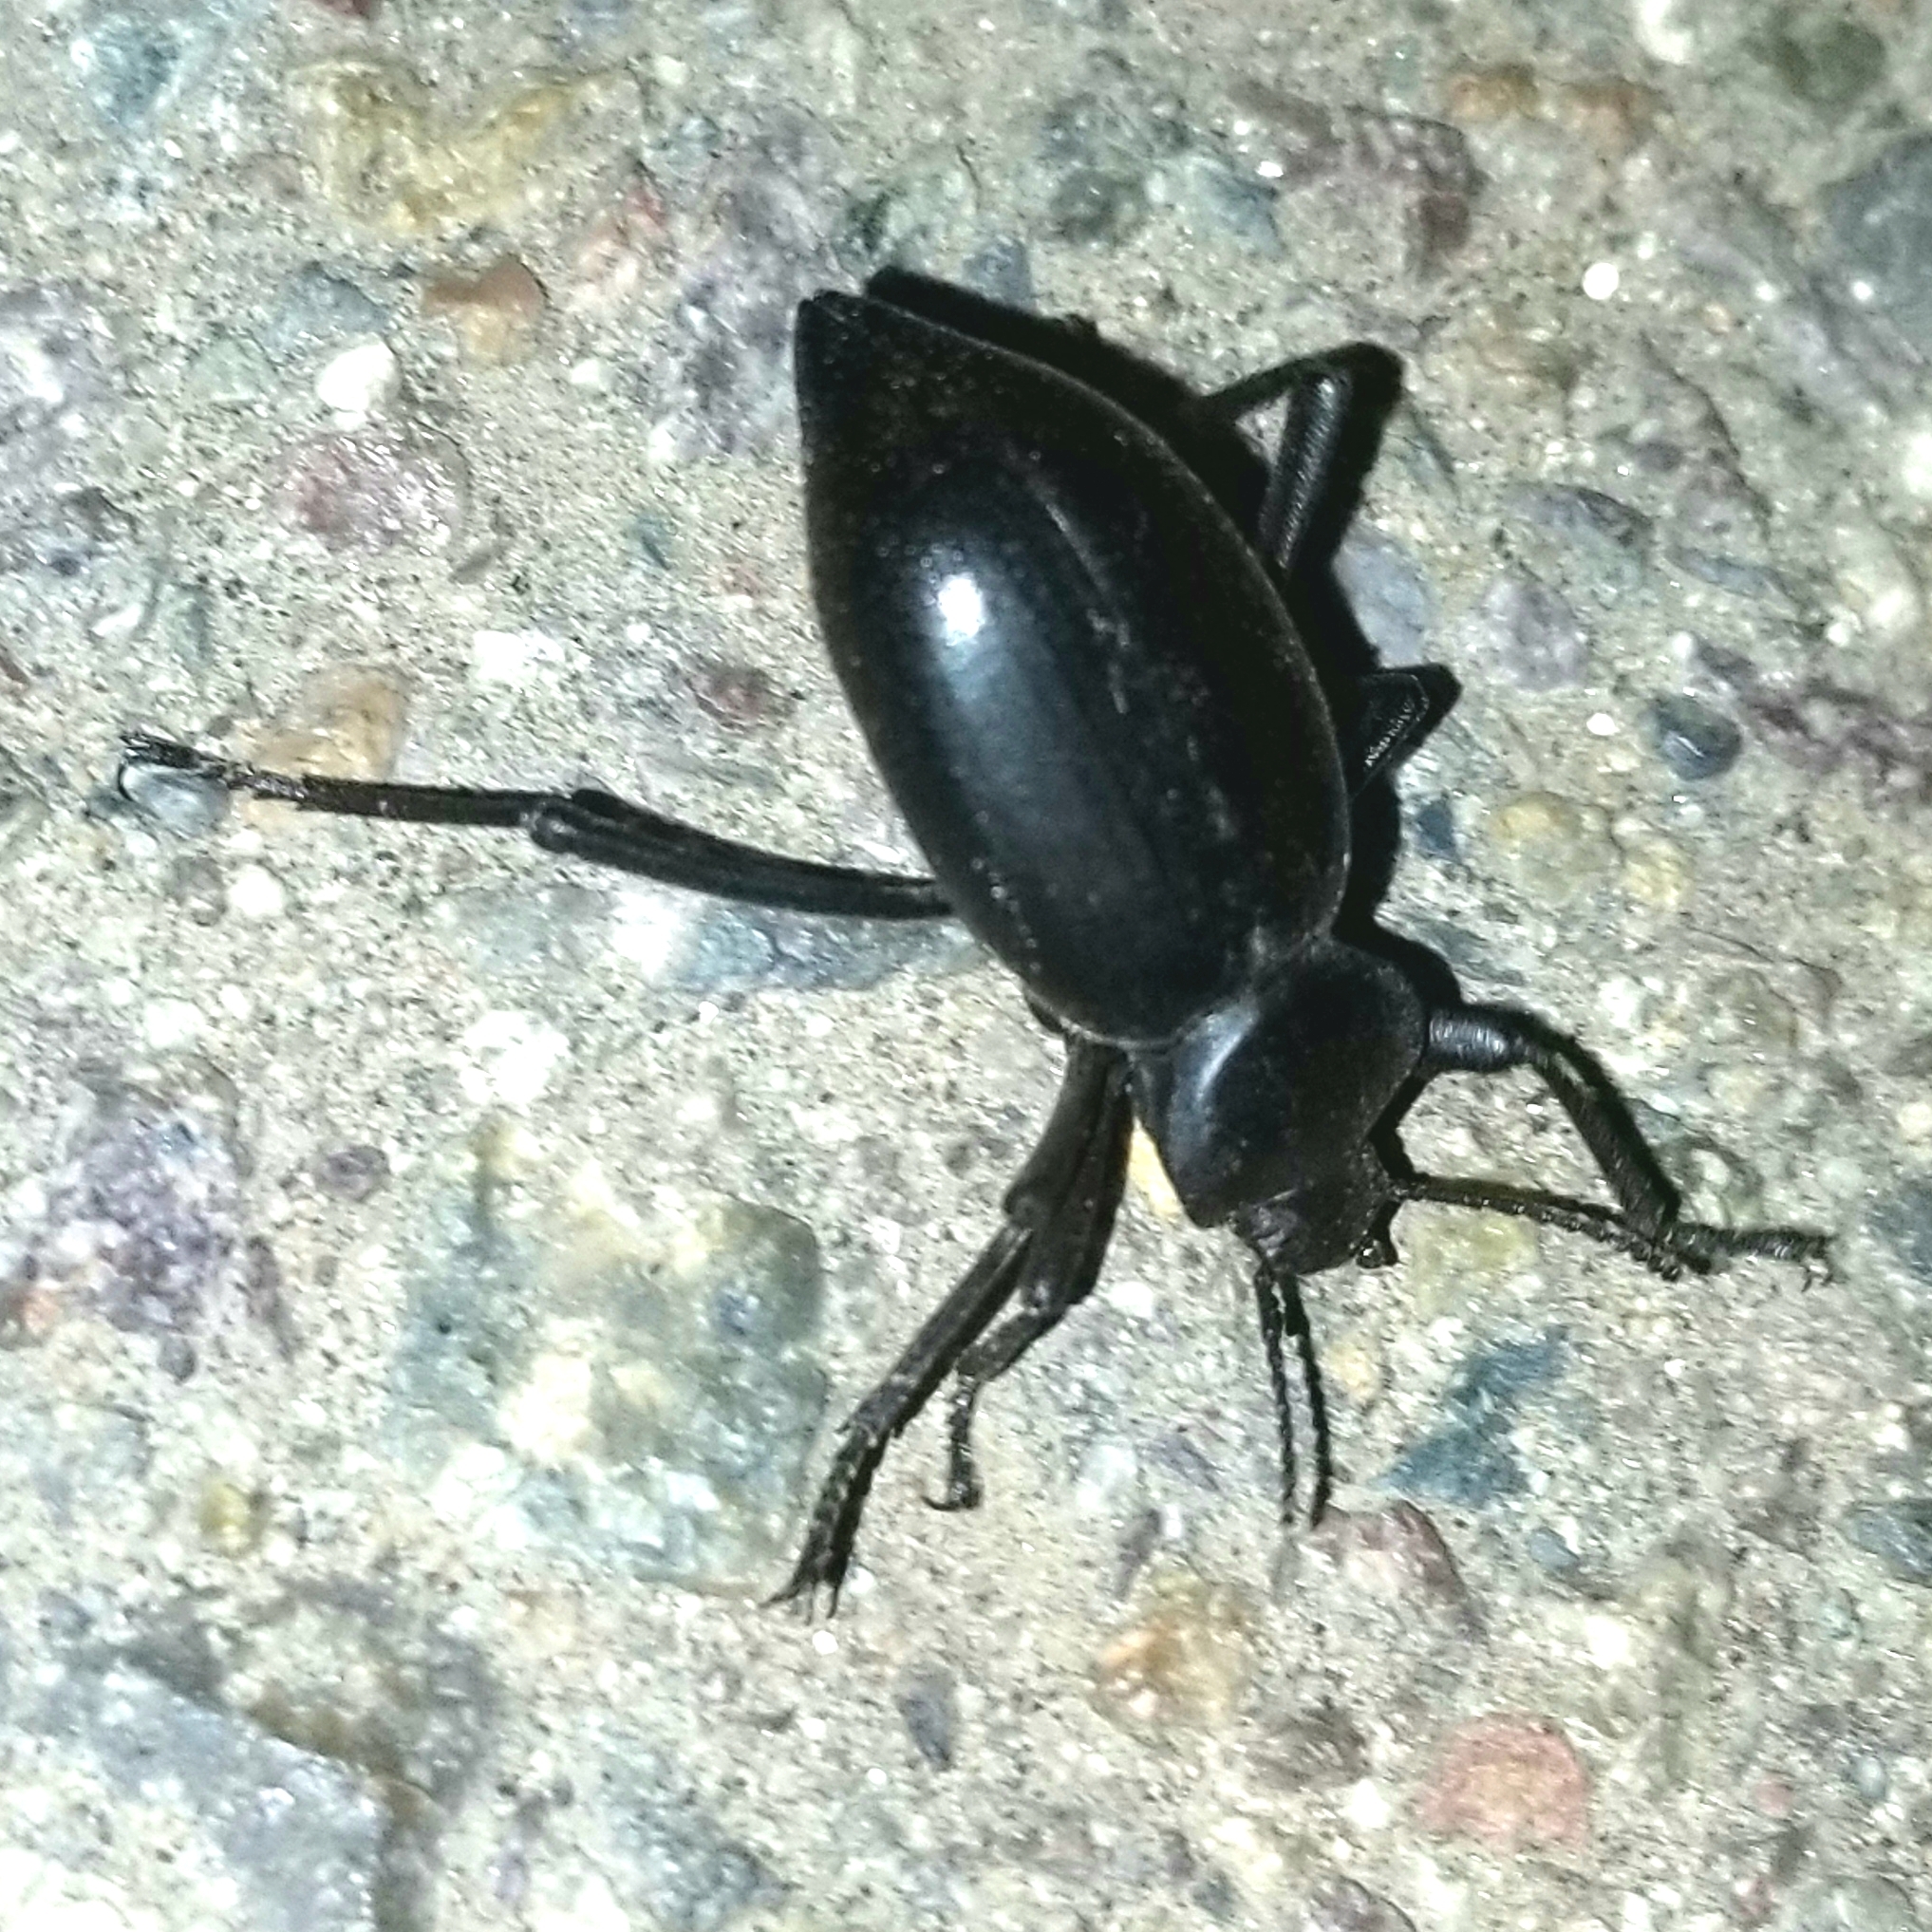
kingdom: Animalia
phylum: Arthropoda
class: Insecta
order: Coleoptera
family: Tenebrionidae
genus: Eleodes
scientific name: Eleodes acuticauda
